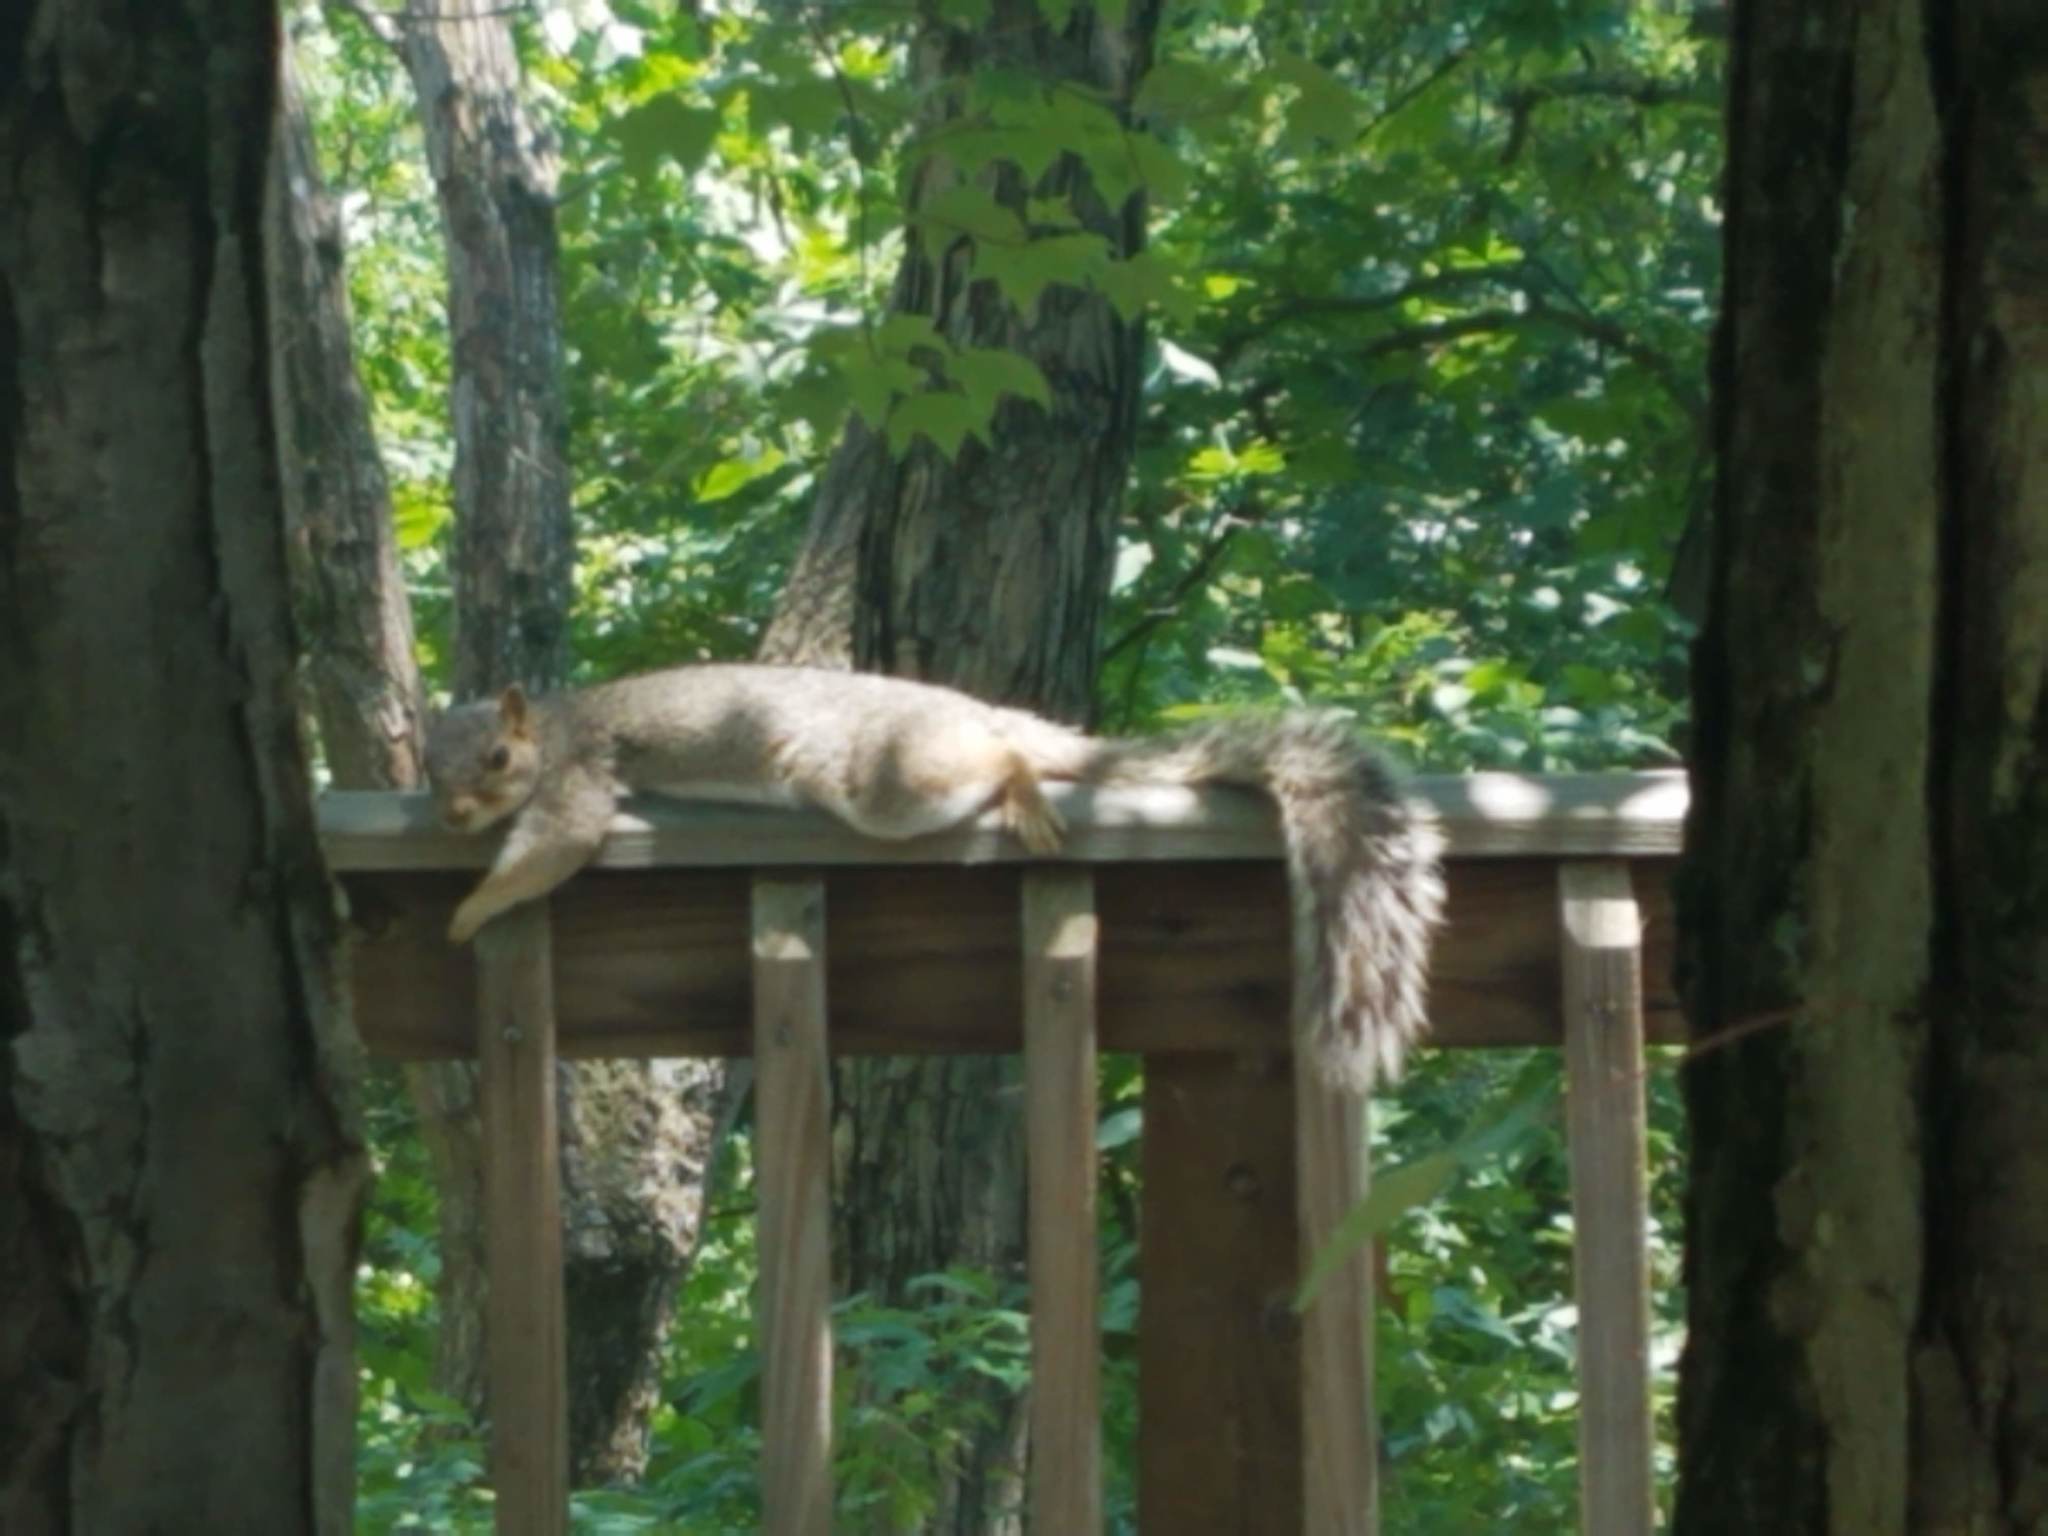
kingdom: Animalia
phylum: Chordata
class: Mammalia
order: Rodentia
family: Sciuridae
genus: Sciurus
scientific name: Sciurus carolinensis
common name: Eastern gray squirrel
